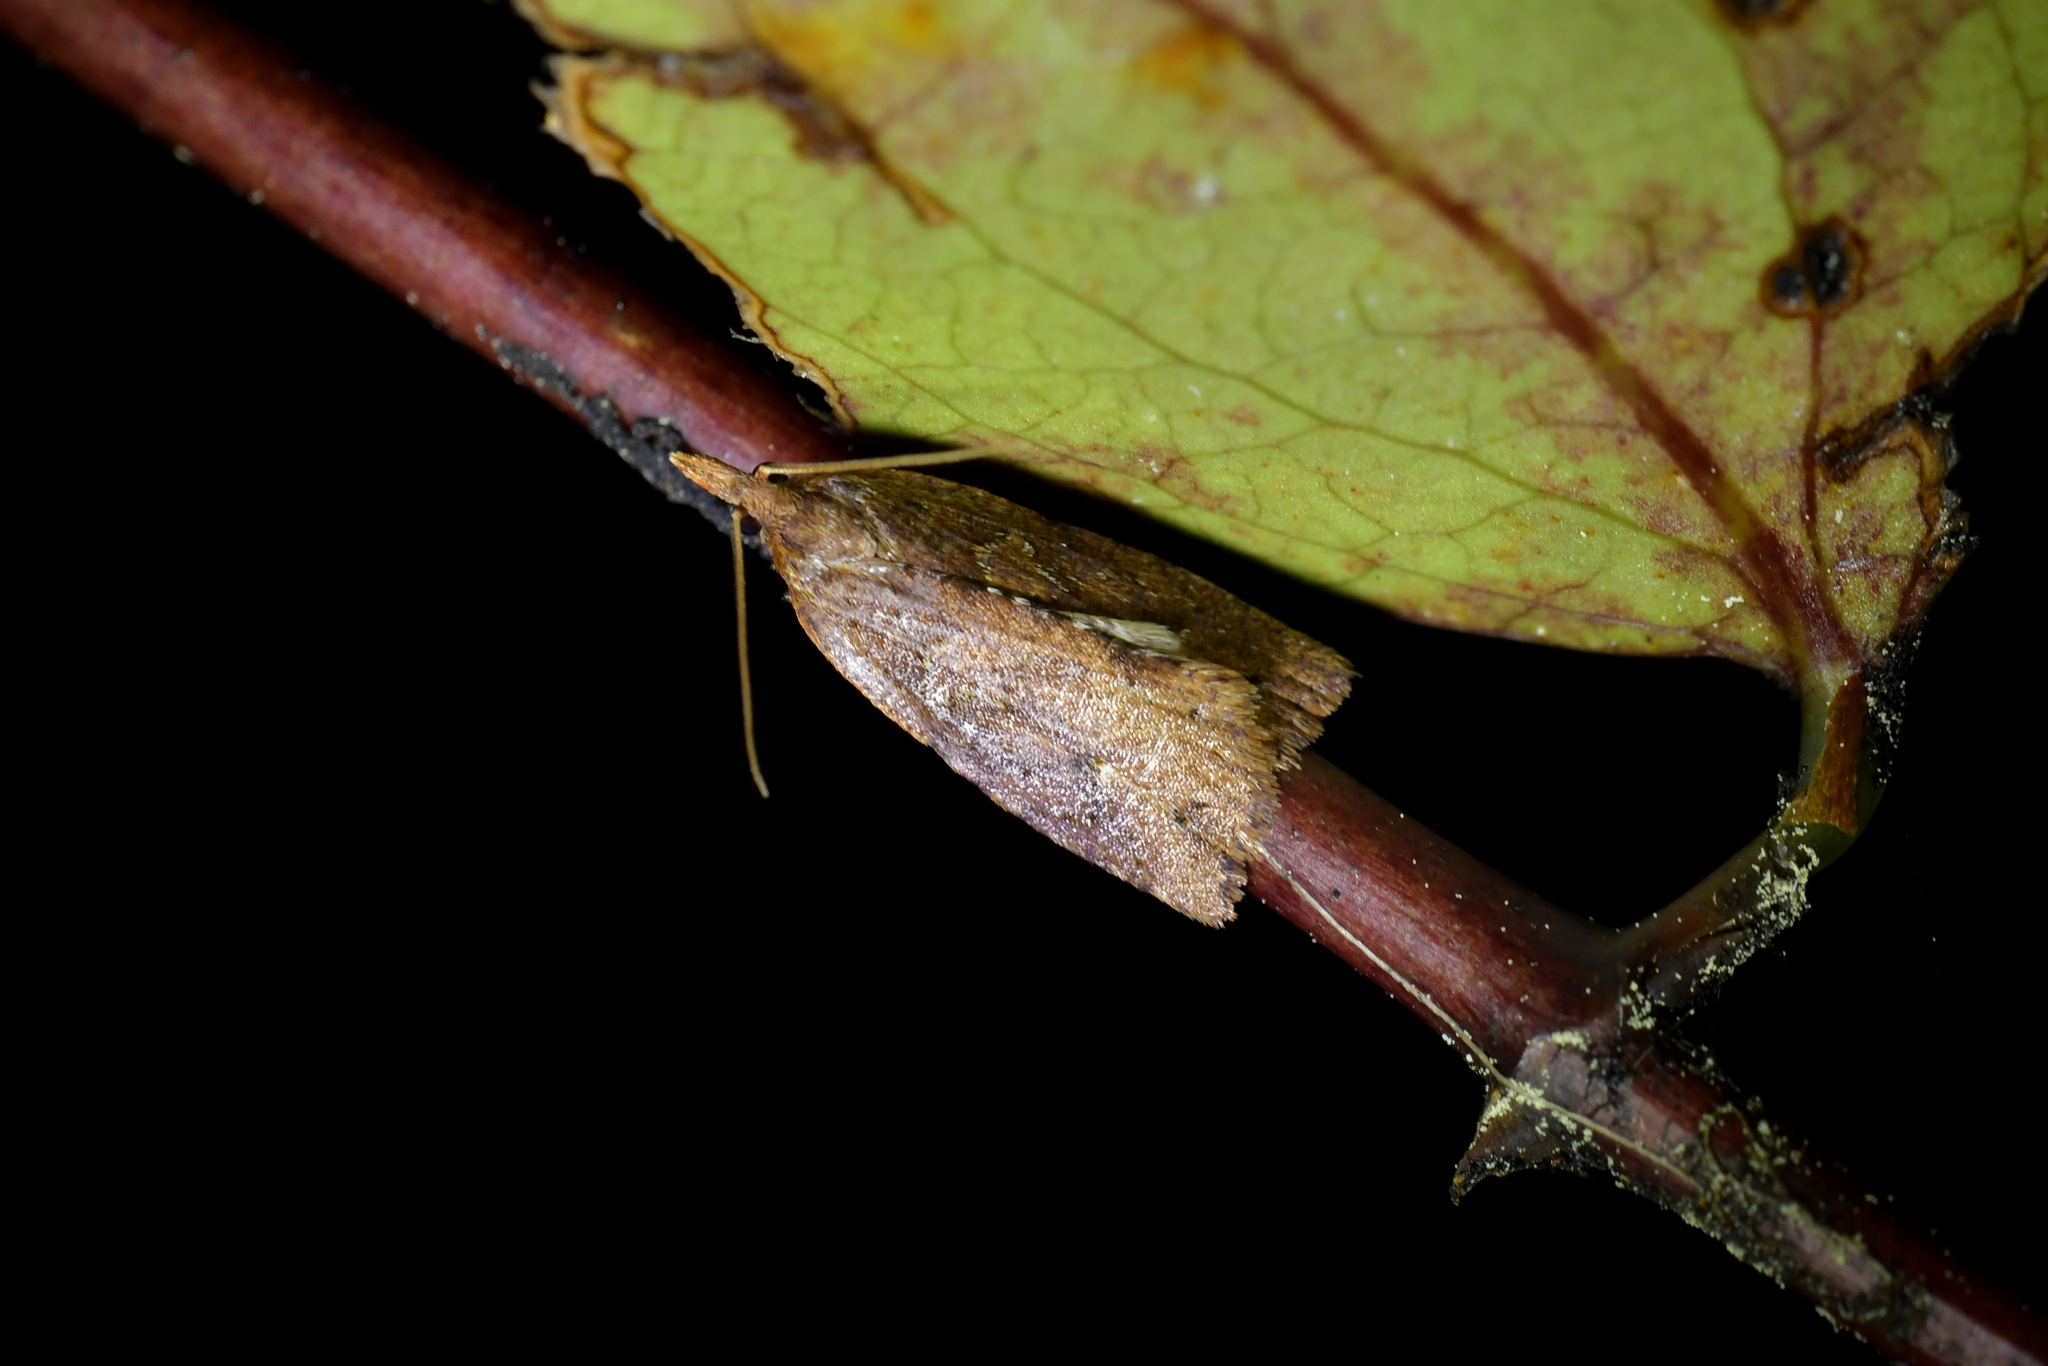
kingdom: Animalia
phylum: Arthropoda
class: Insecta
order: Lepidoptera
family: Tortricidae
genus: Planotortrix
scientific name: Planotortrix notophaea
